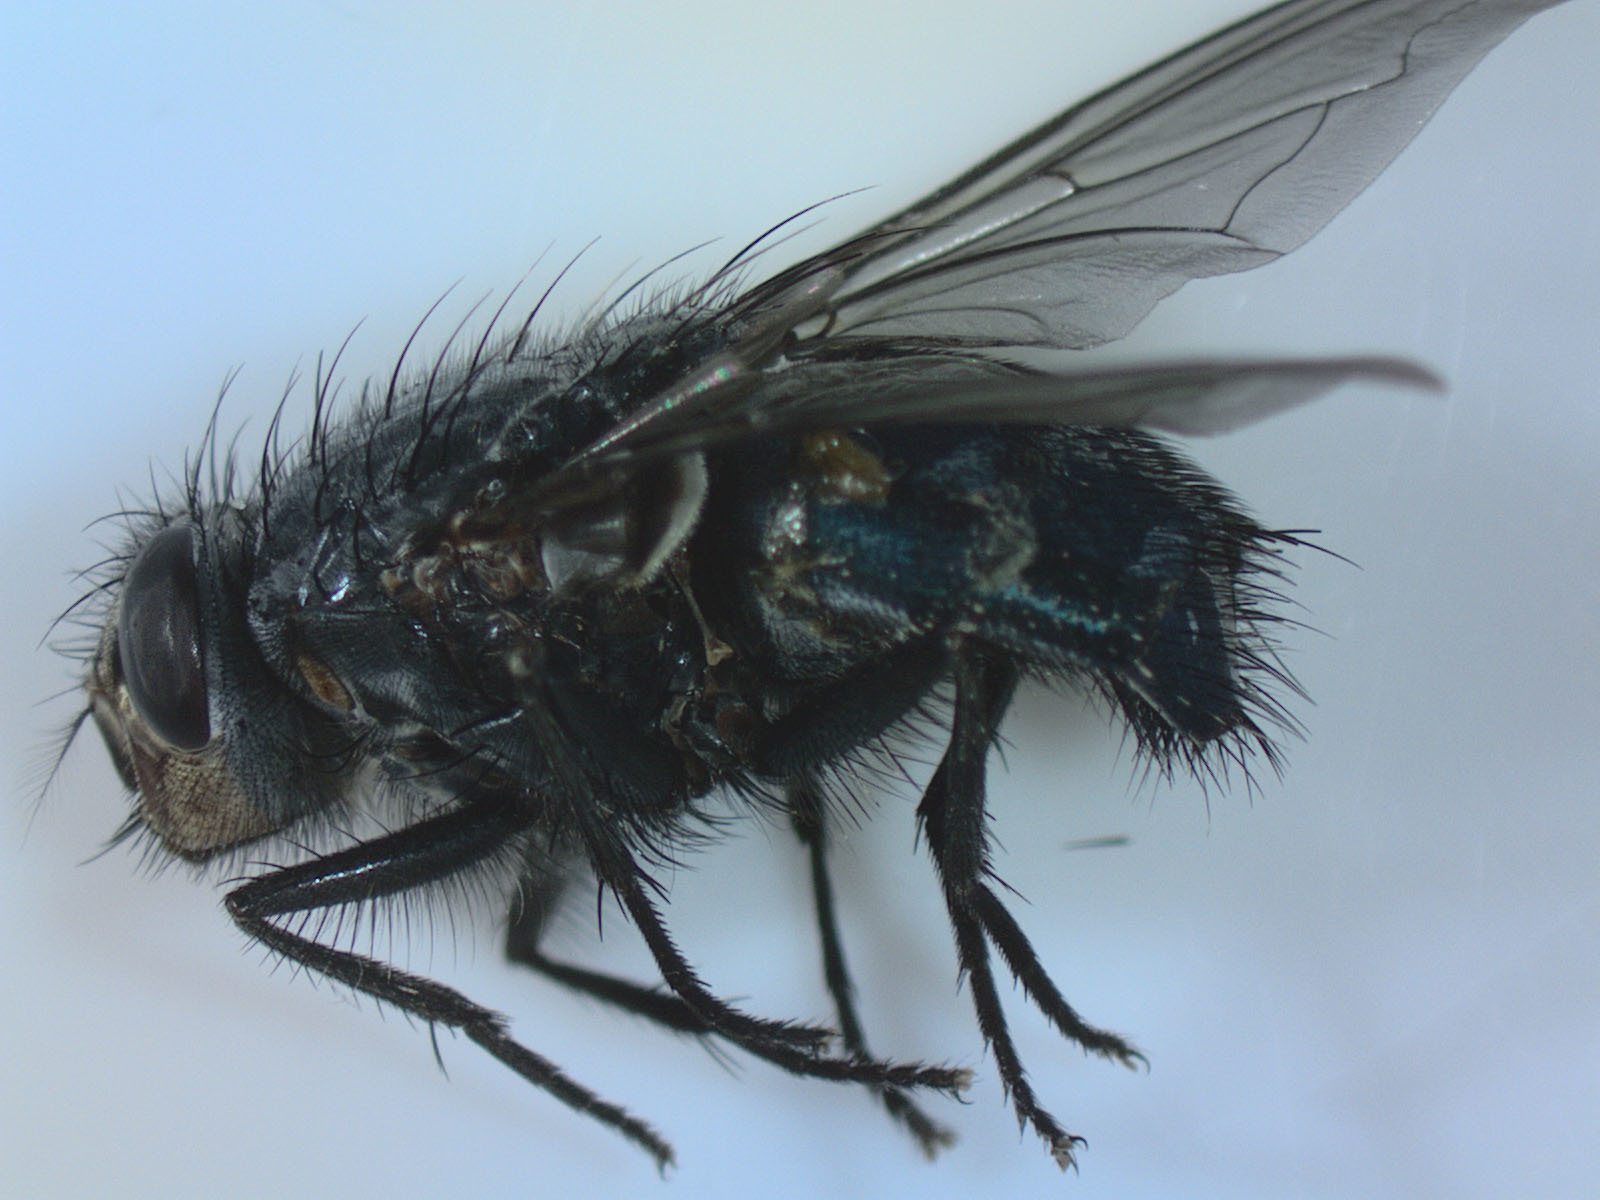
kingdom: Animalia
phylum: Arthropoda
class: Insecta
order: Diptera
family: Calliphoridae
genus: Calliphora
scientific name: Calliphora vicina
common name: Common blow flie
